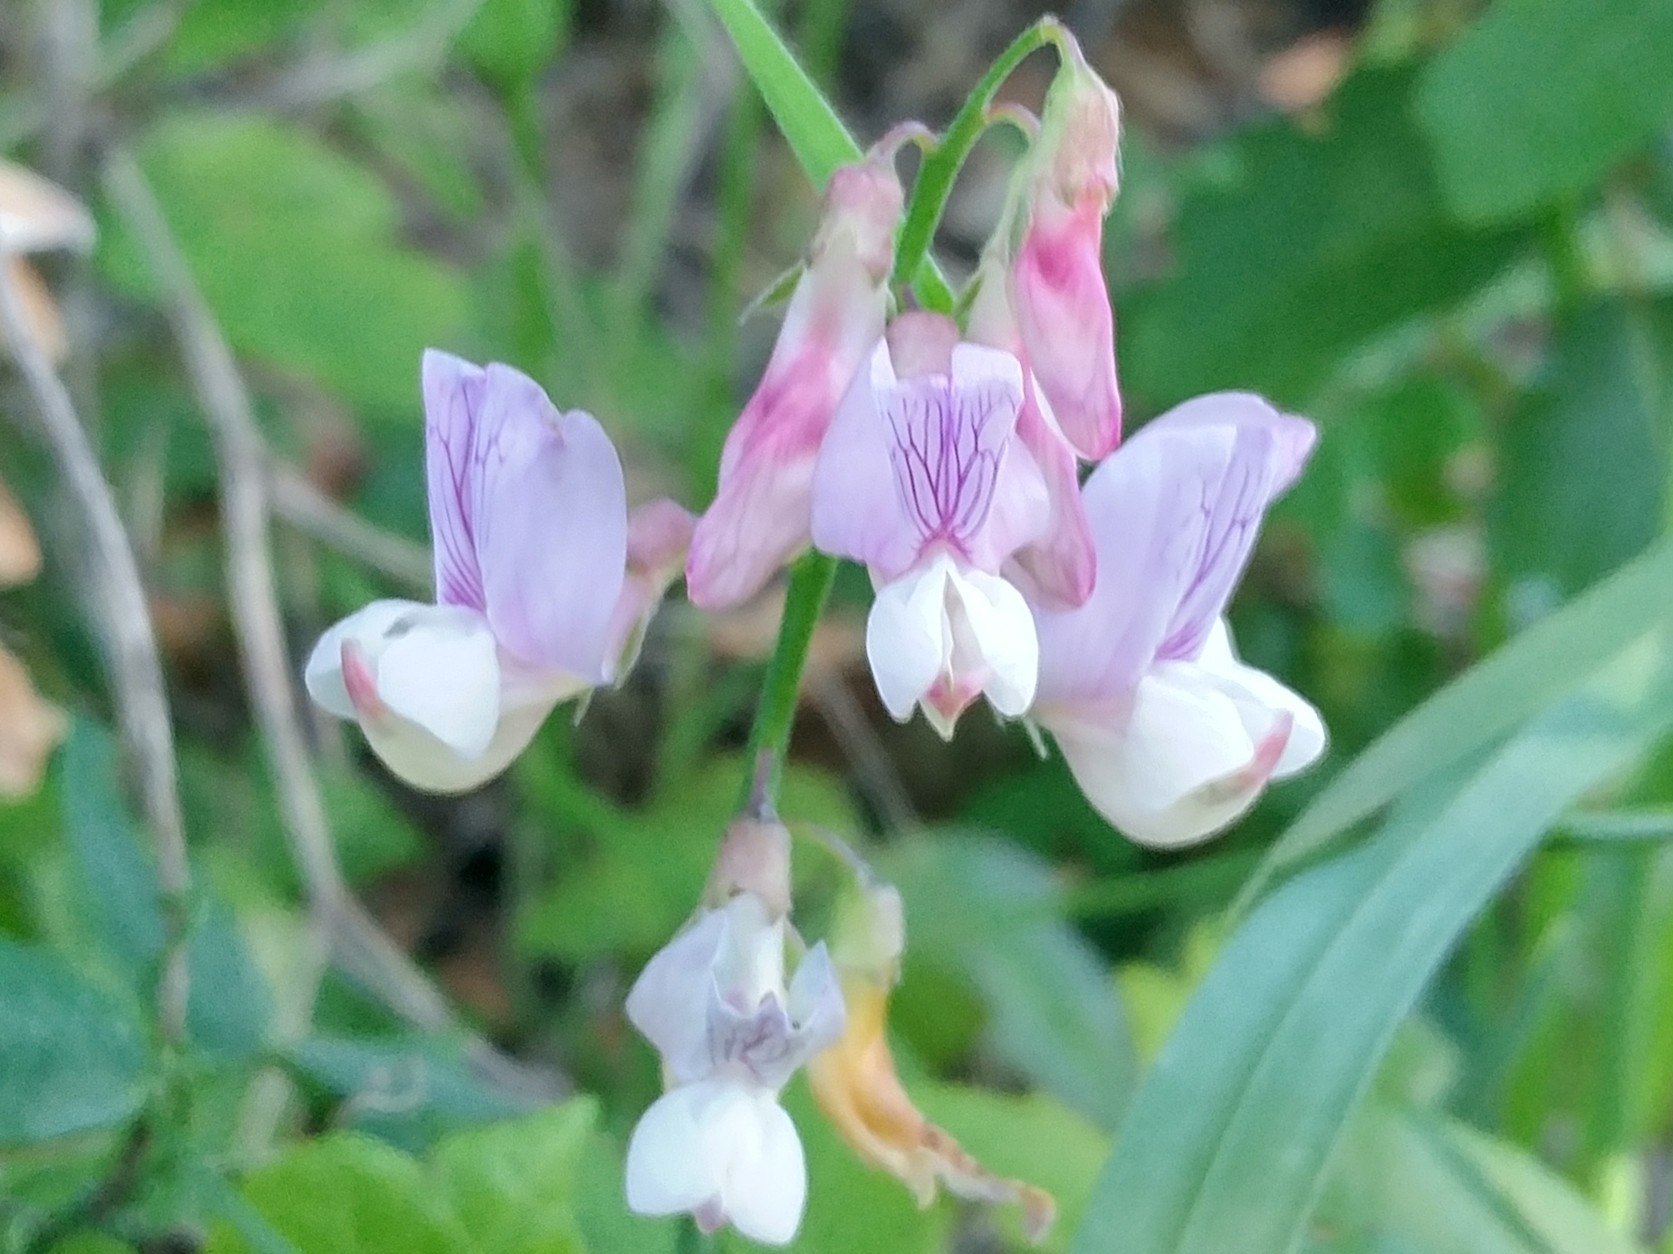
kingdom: Plantae
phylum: Tracheophyta
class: Magnoliopsida
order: Fabales
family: Fabaceae
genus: Lathyrus
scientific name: Lathyrus vestitus
